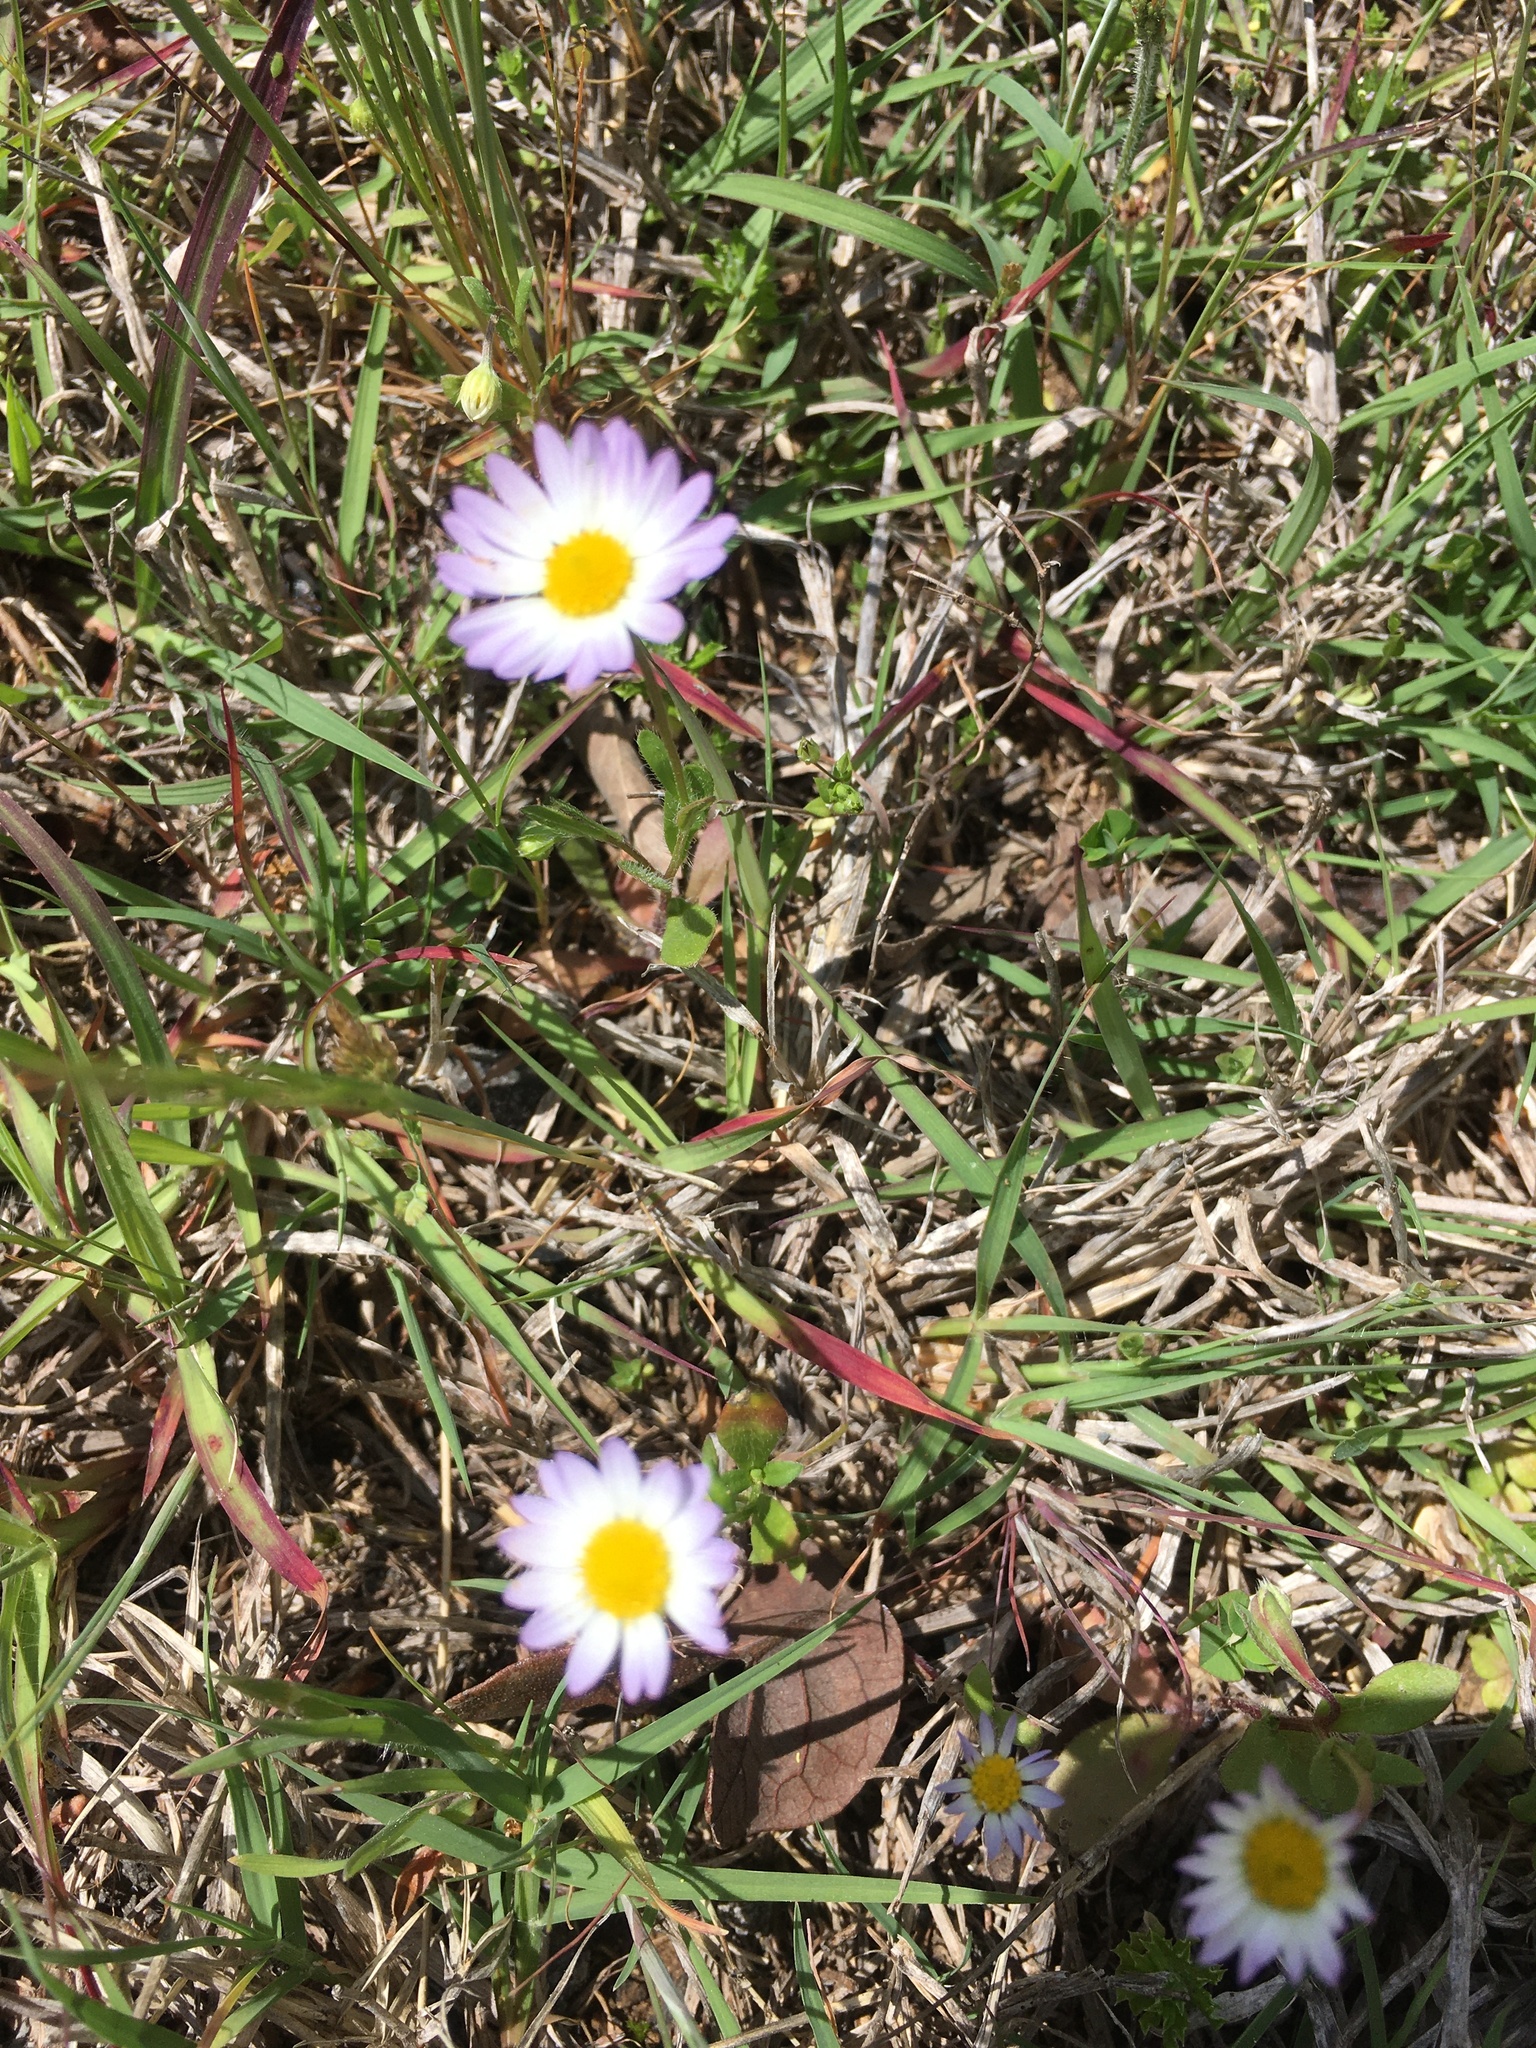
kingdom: Plantae
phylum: Tracheophyta
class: Magnoliopsida
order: Asterales
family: Asteraceae
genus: Astranthium
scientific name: Astranthium ciliatum
